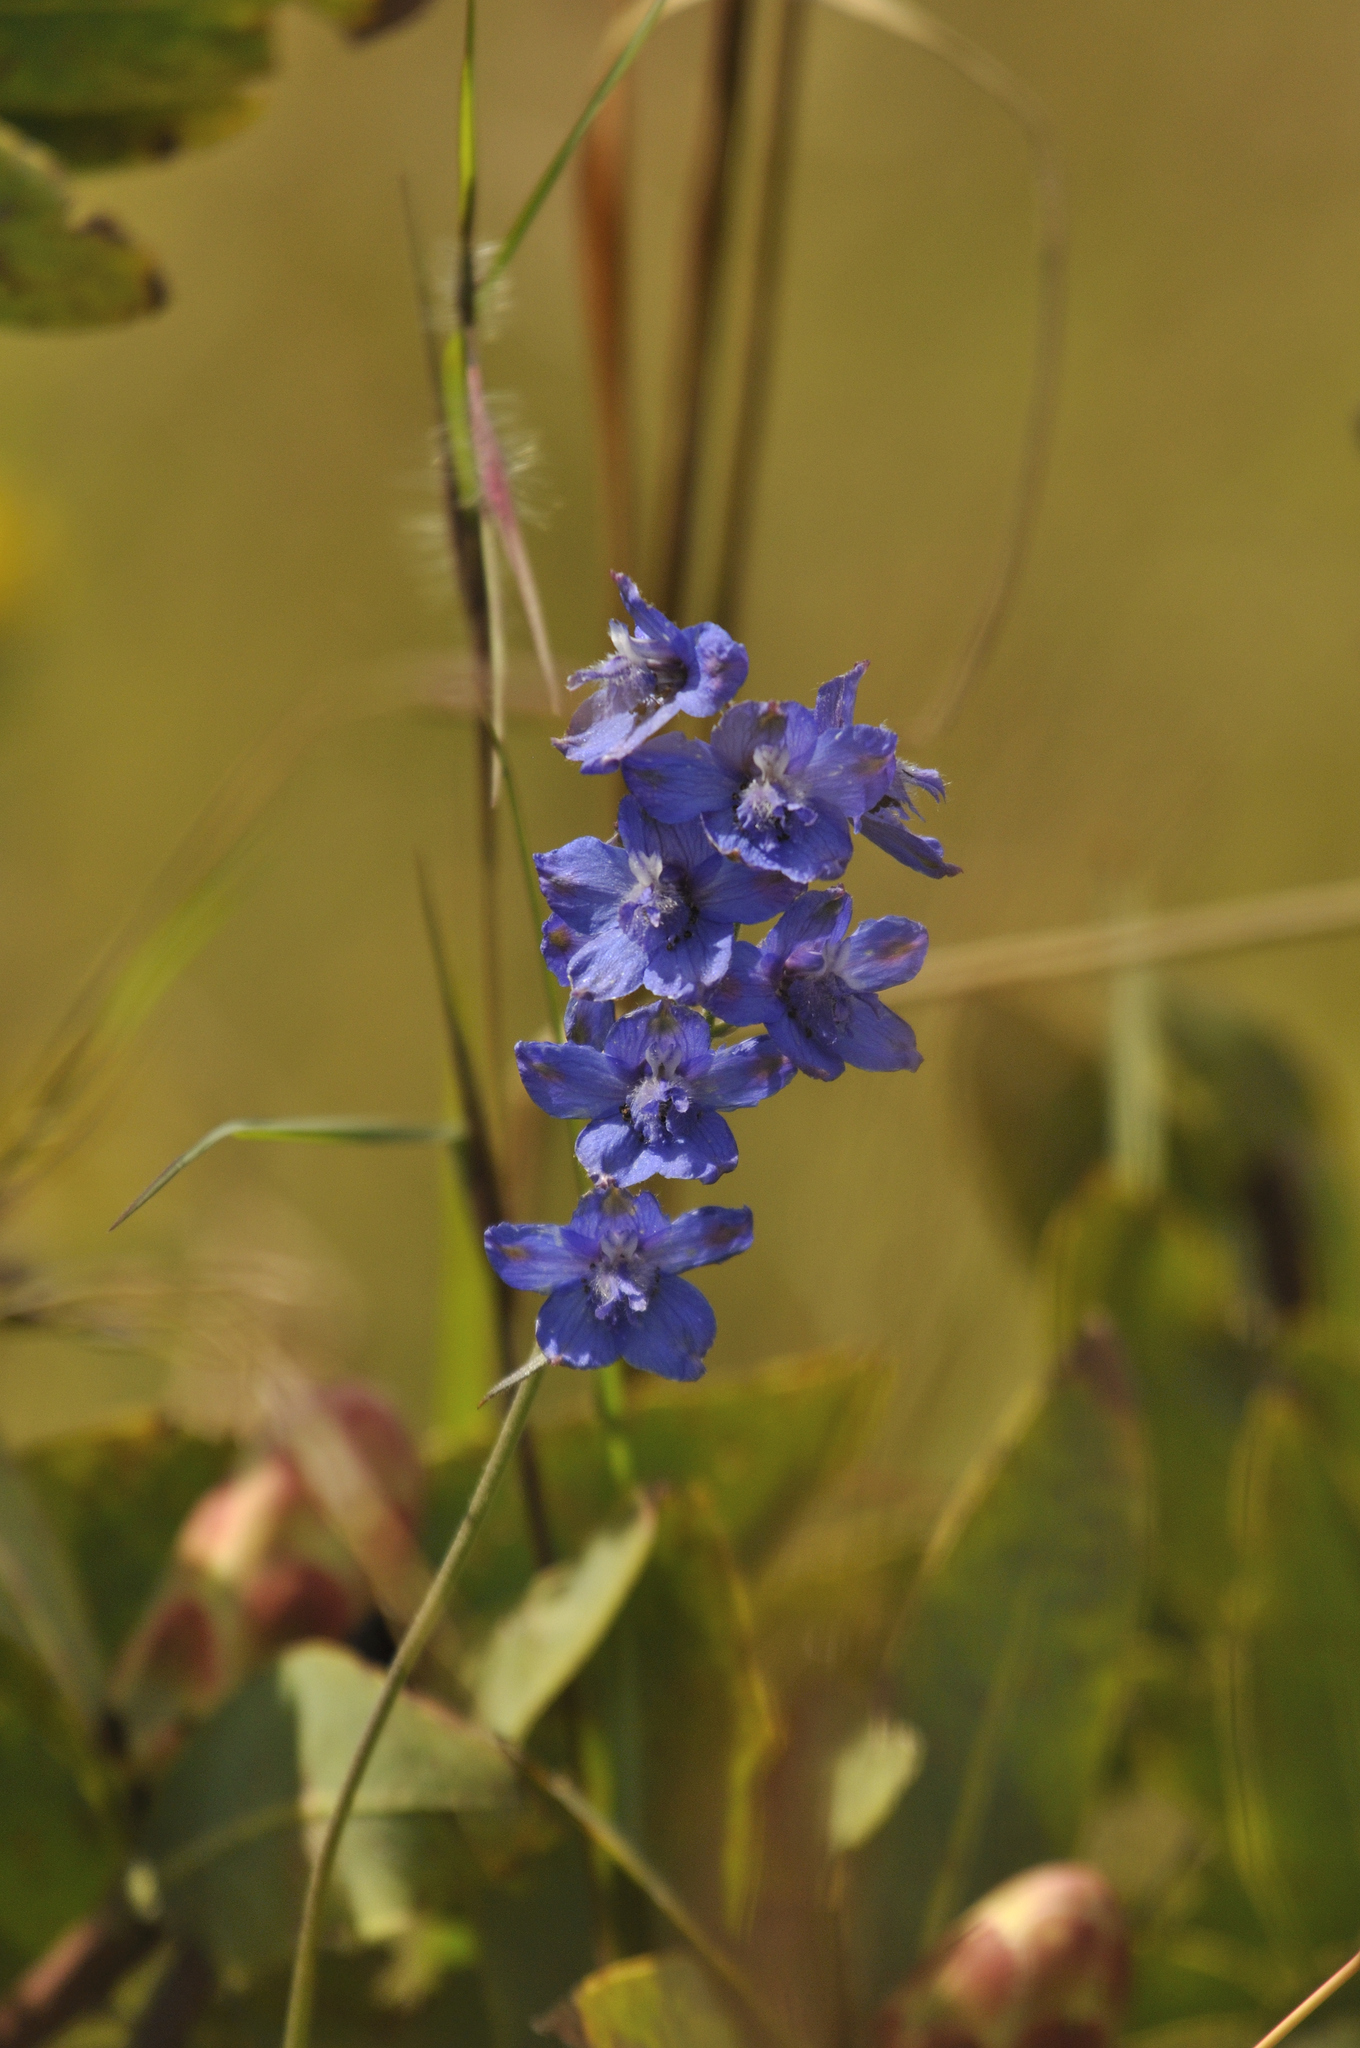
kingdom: Plantae
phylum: Tracheophyta
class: Magnoliopsida
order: Ranunculales
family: Ranunculaceae
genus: Delphinium
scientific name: Delphinium dasycaulon
